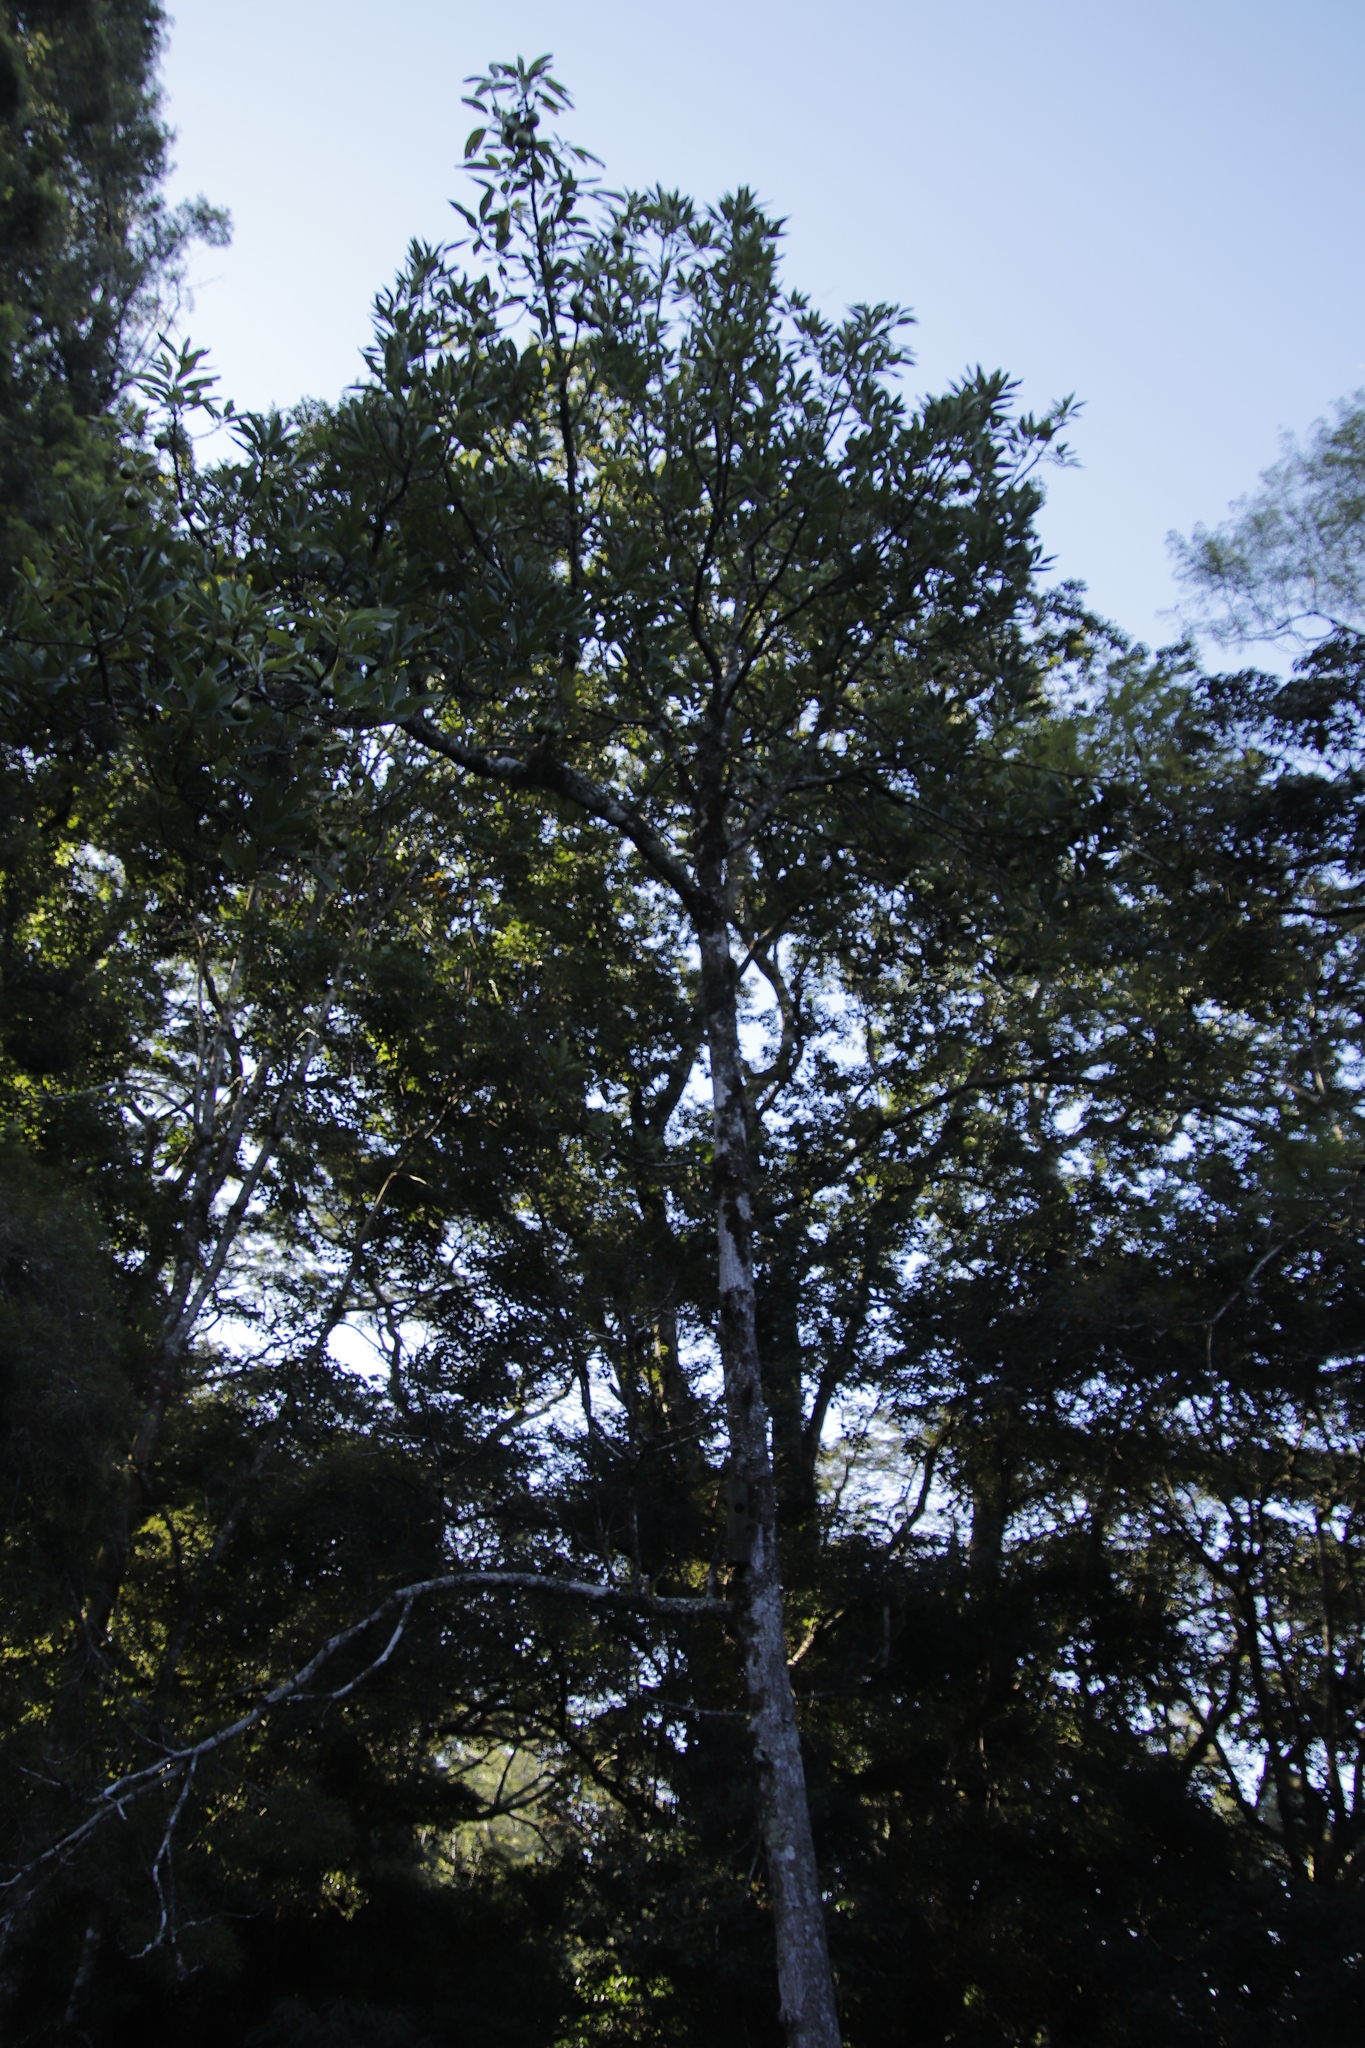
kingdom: Plantae
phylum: Tracheophyta
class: Magnoliopsida
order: Laurales
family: Lauraceae
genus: Persea
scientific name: Persea americana
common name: Avocado
